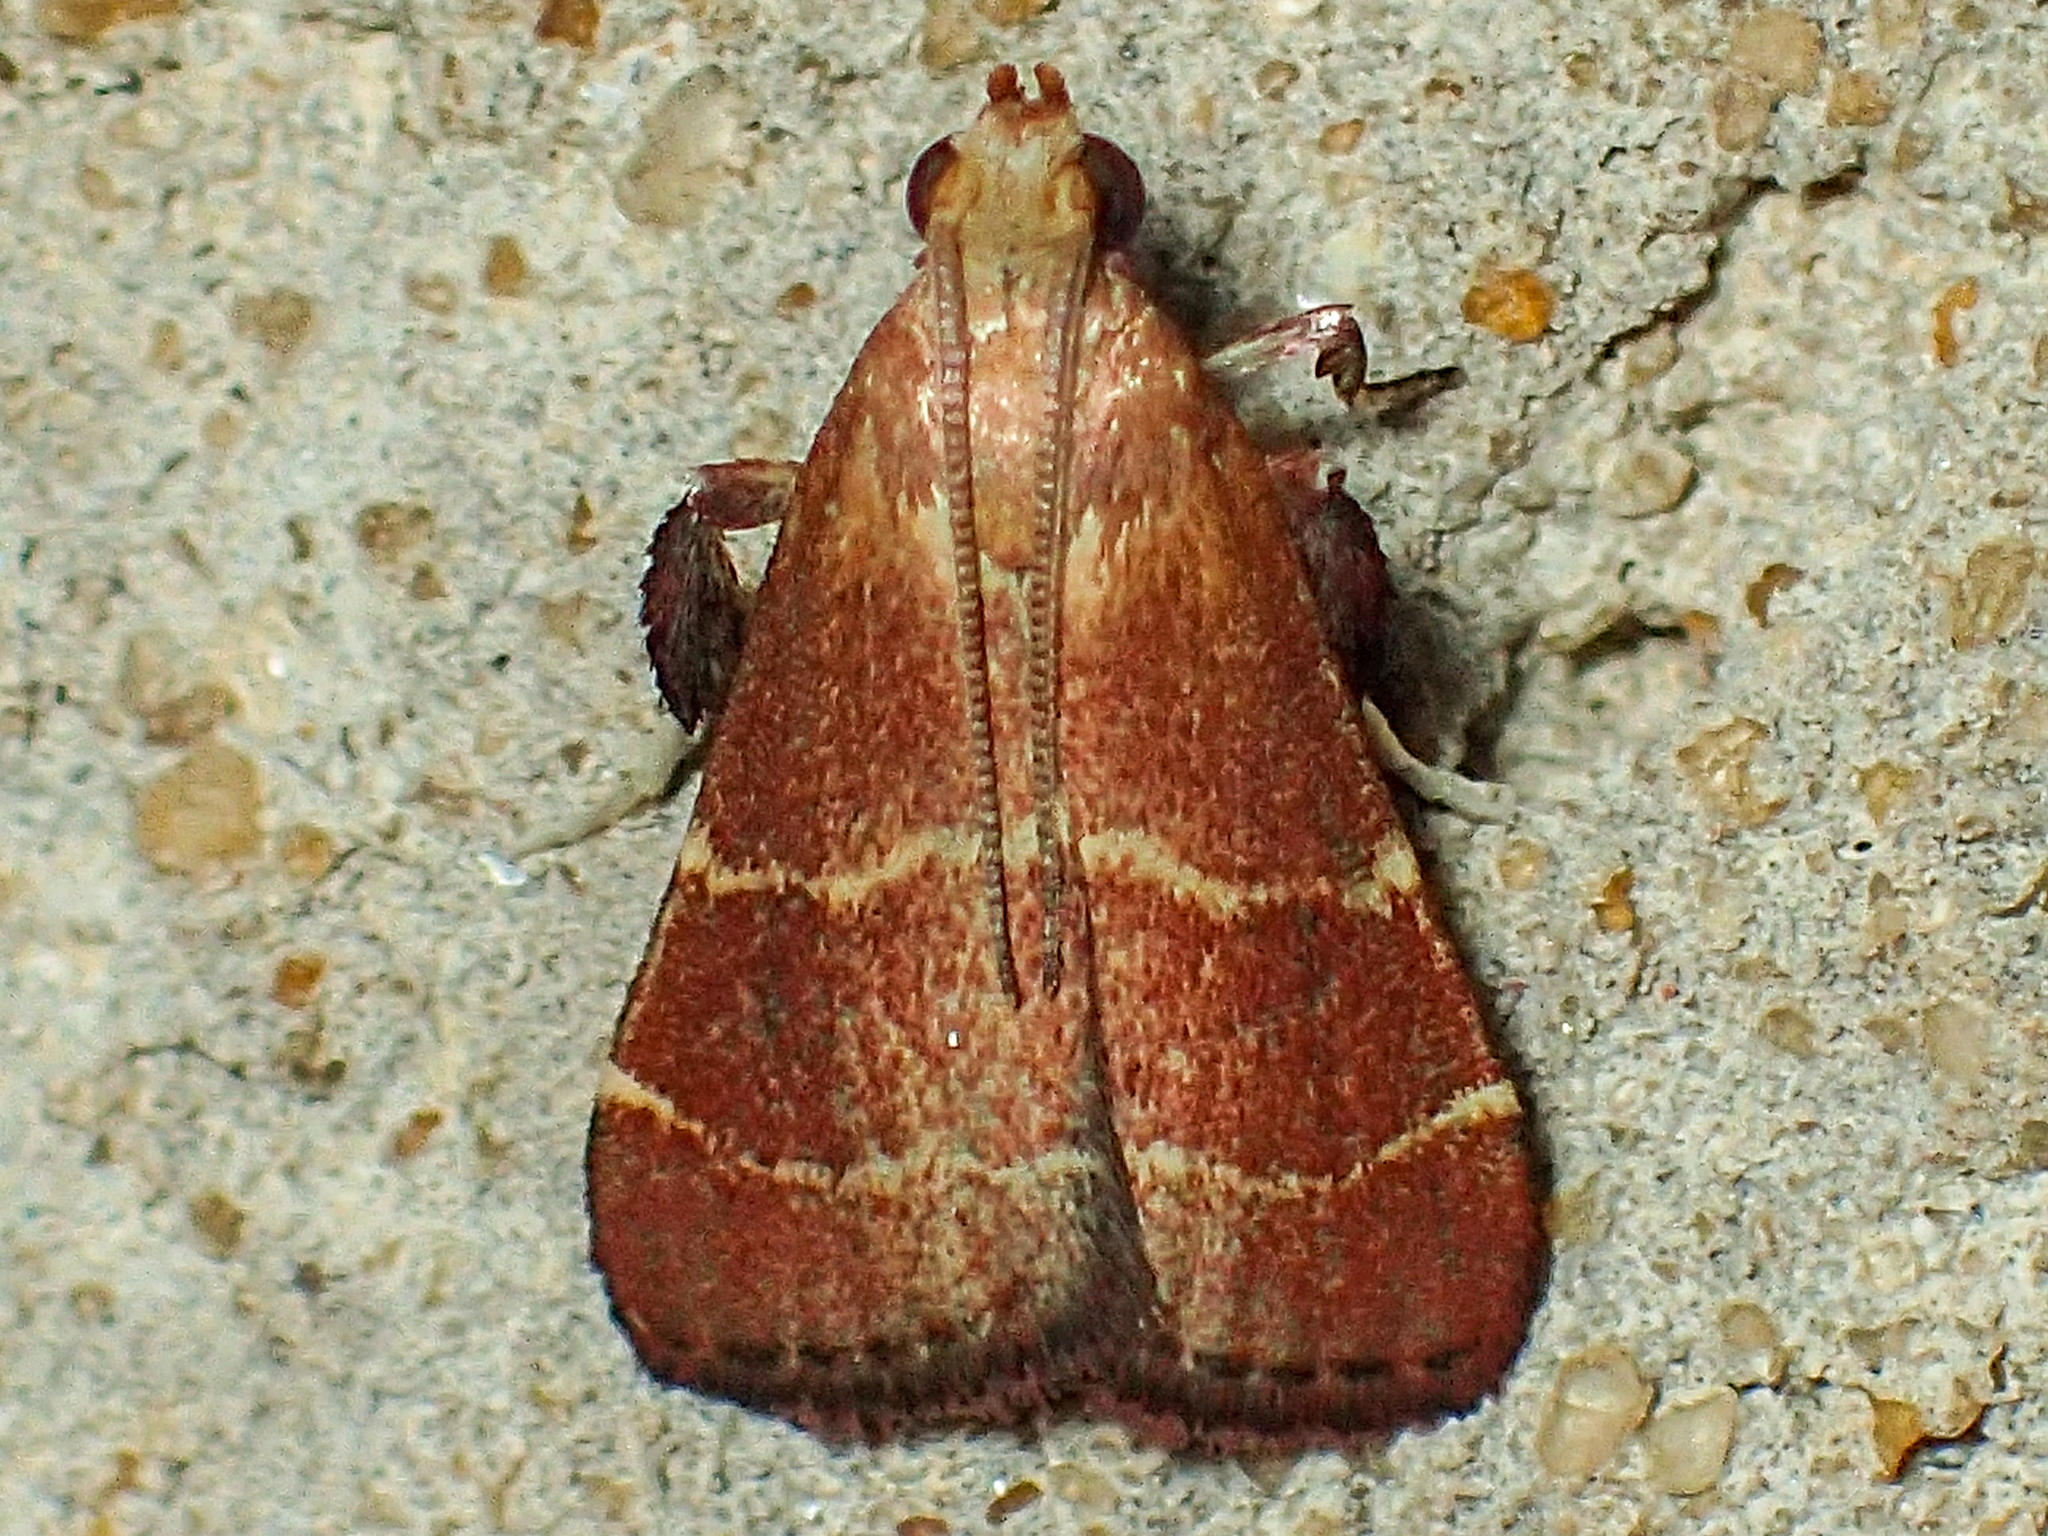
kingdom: Animalia
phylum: Arthropoda
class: Insecta
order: Lepidoptera
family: Pyralidae
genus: Arta
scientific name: Arta statalis
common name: Posturing arta moth
